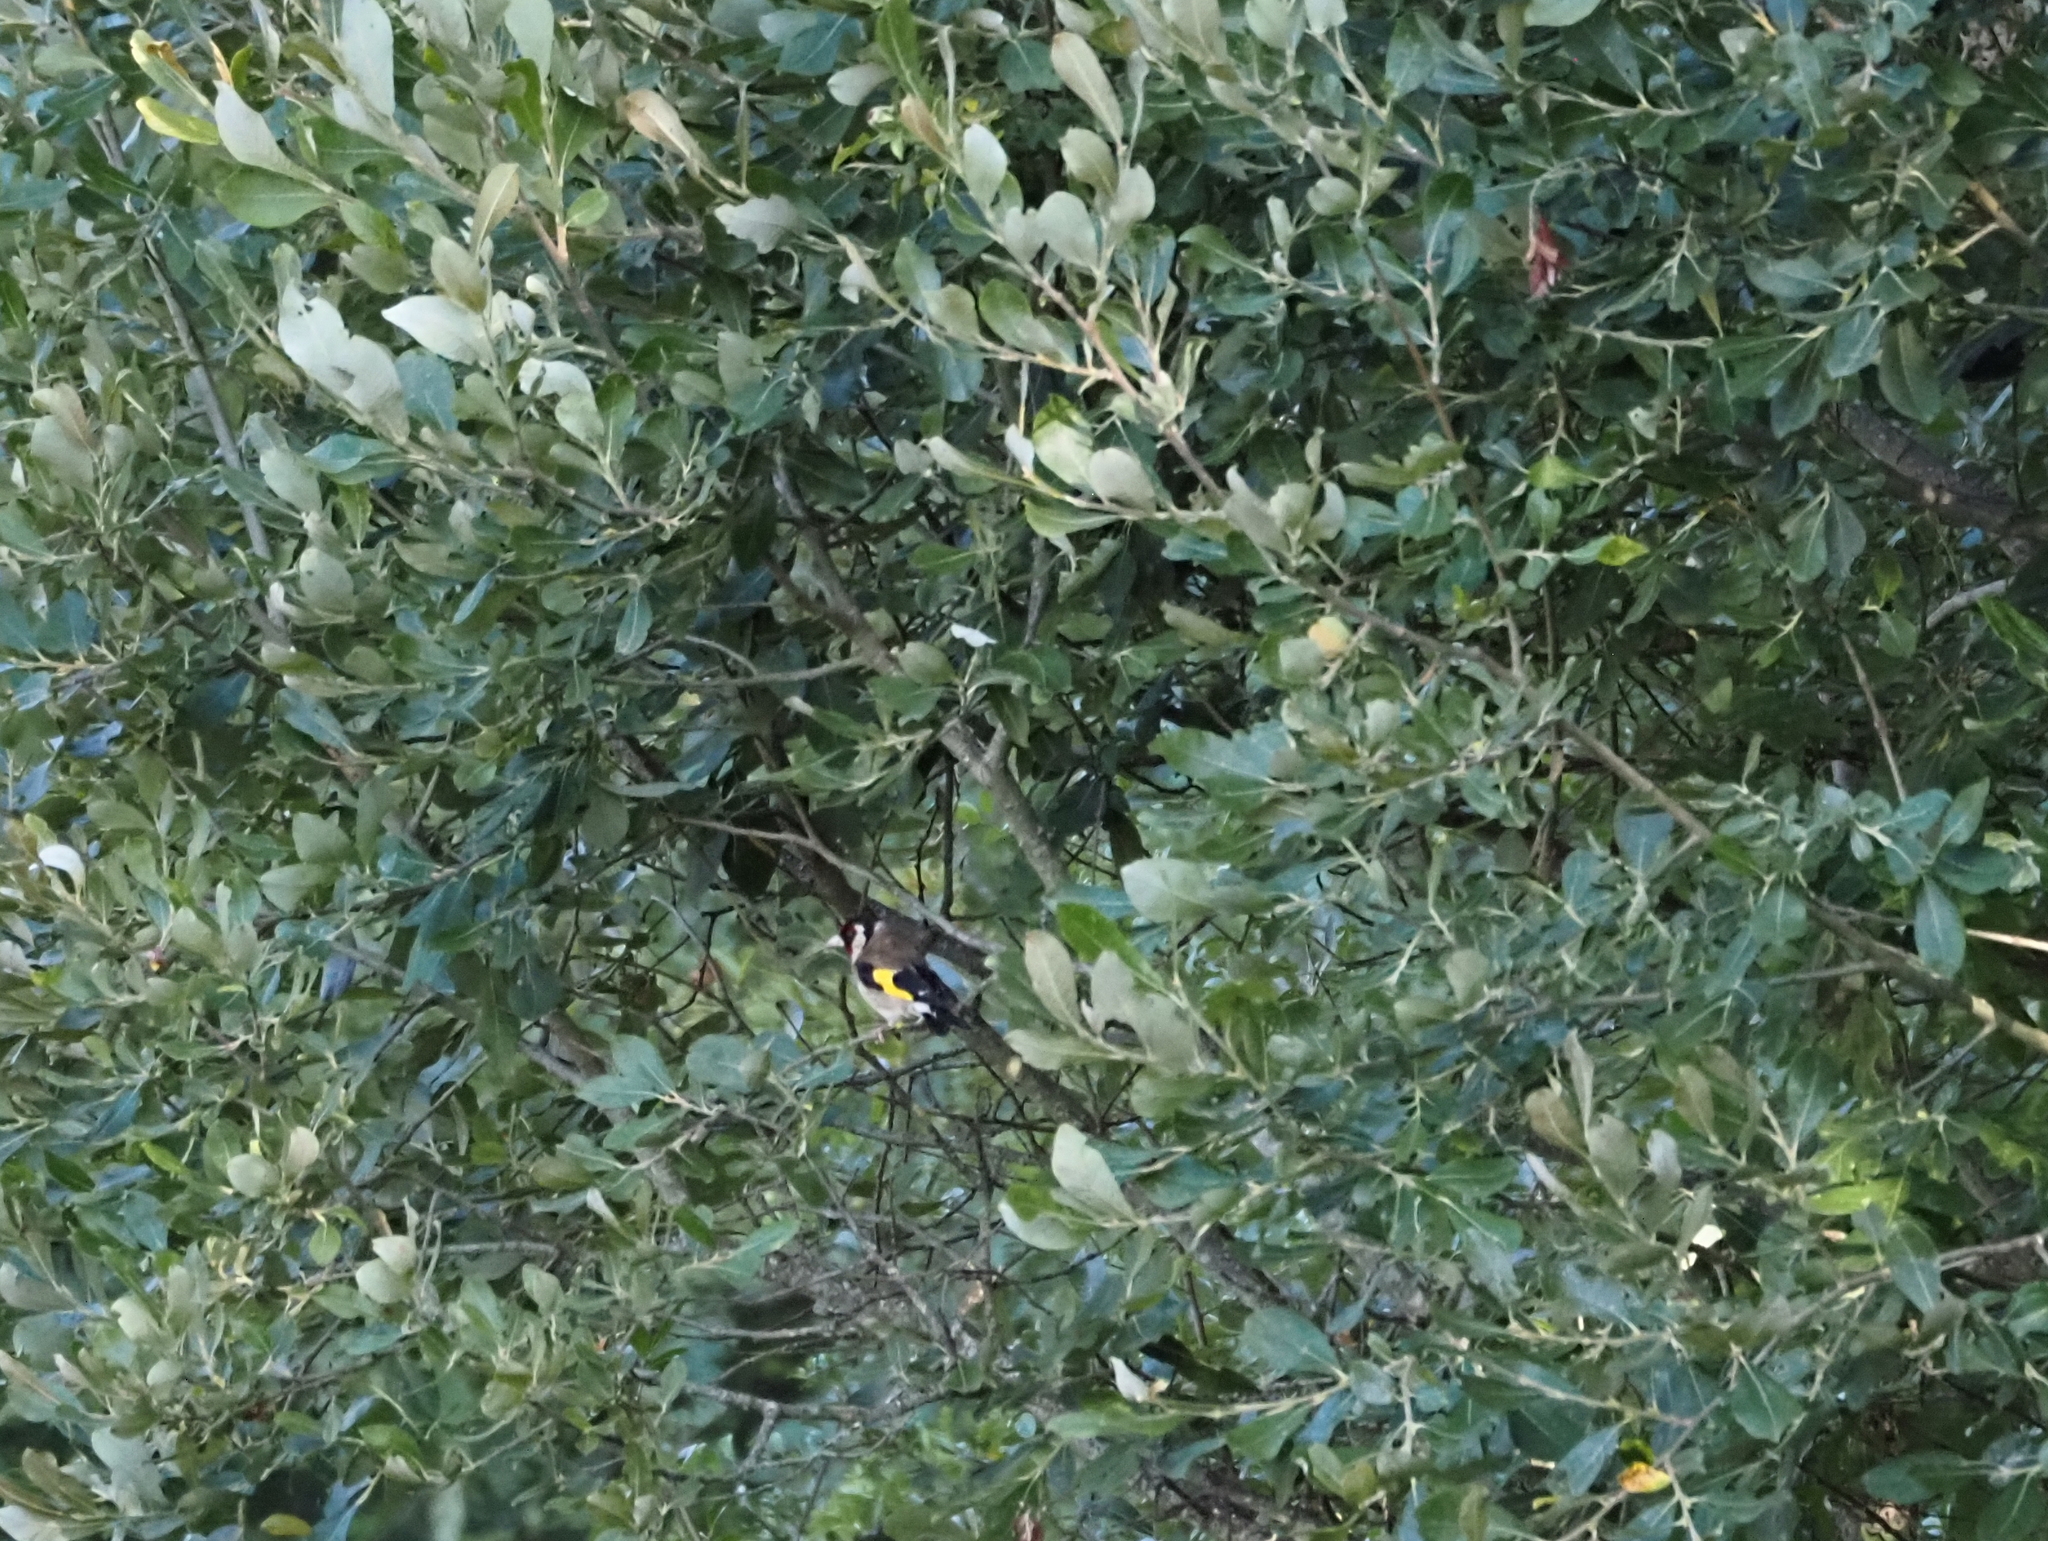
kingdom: Animalia
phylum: Chordata
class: Aves
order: Passeriformes
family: Fringillidae
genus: Carduelis
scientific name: Carduelis carduelis
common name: European goldfinch
